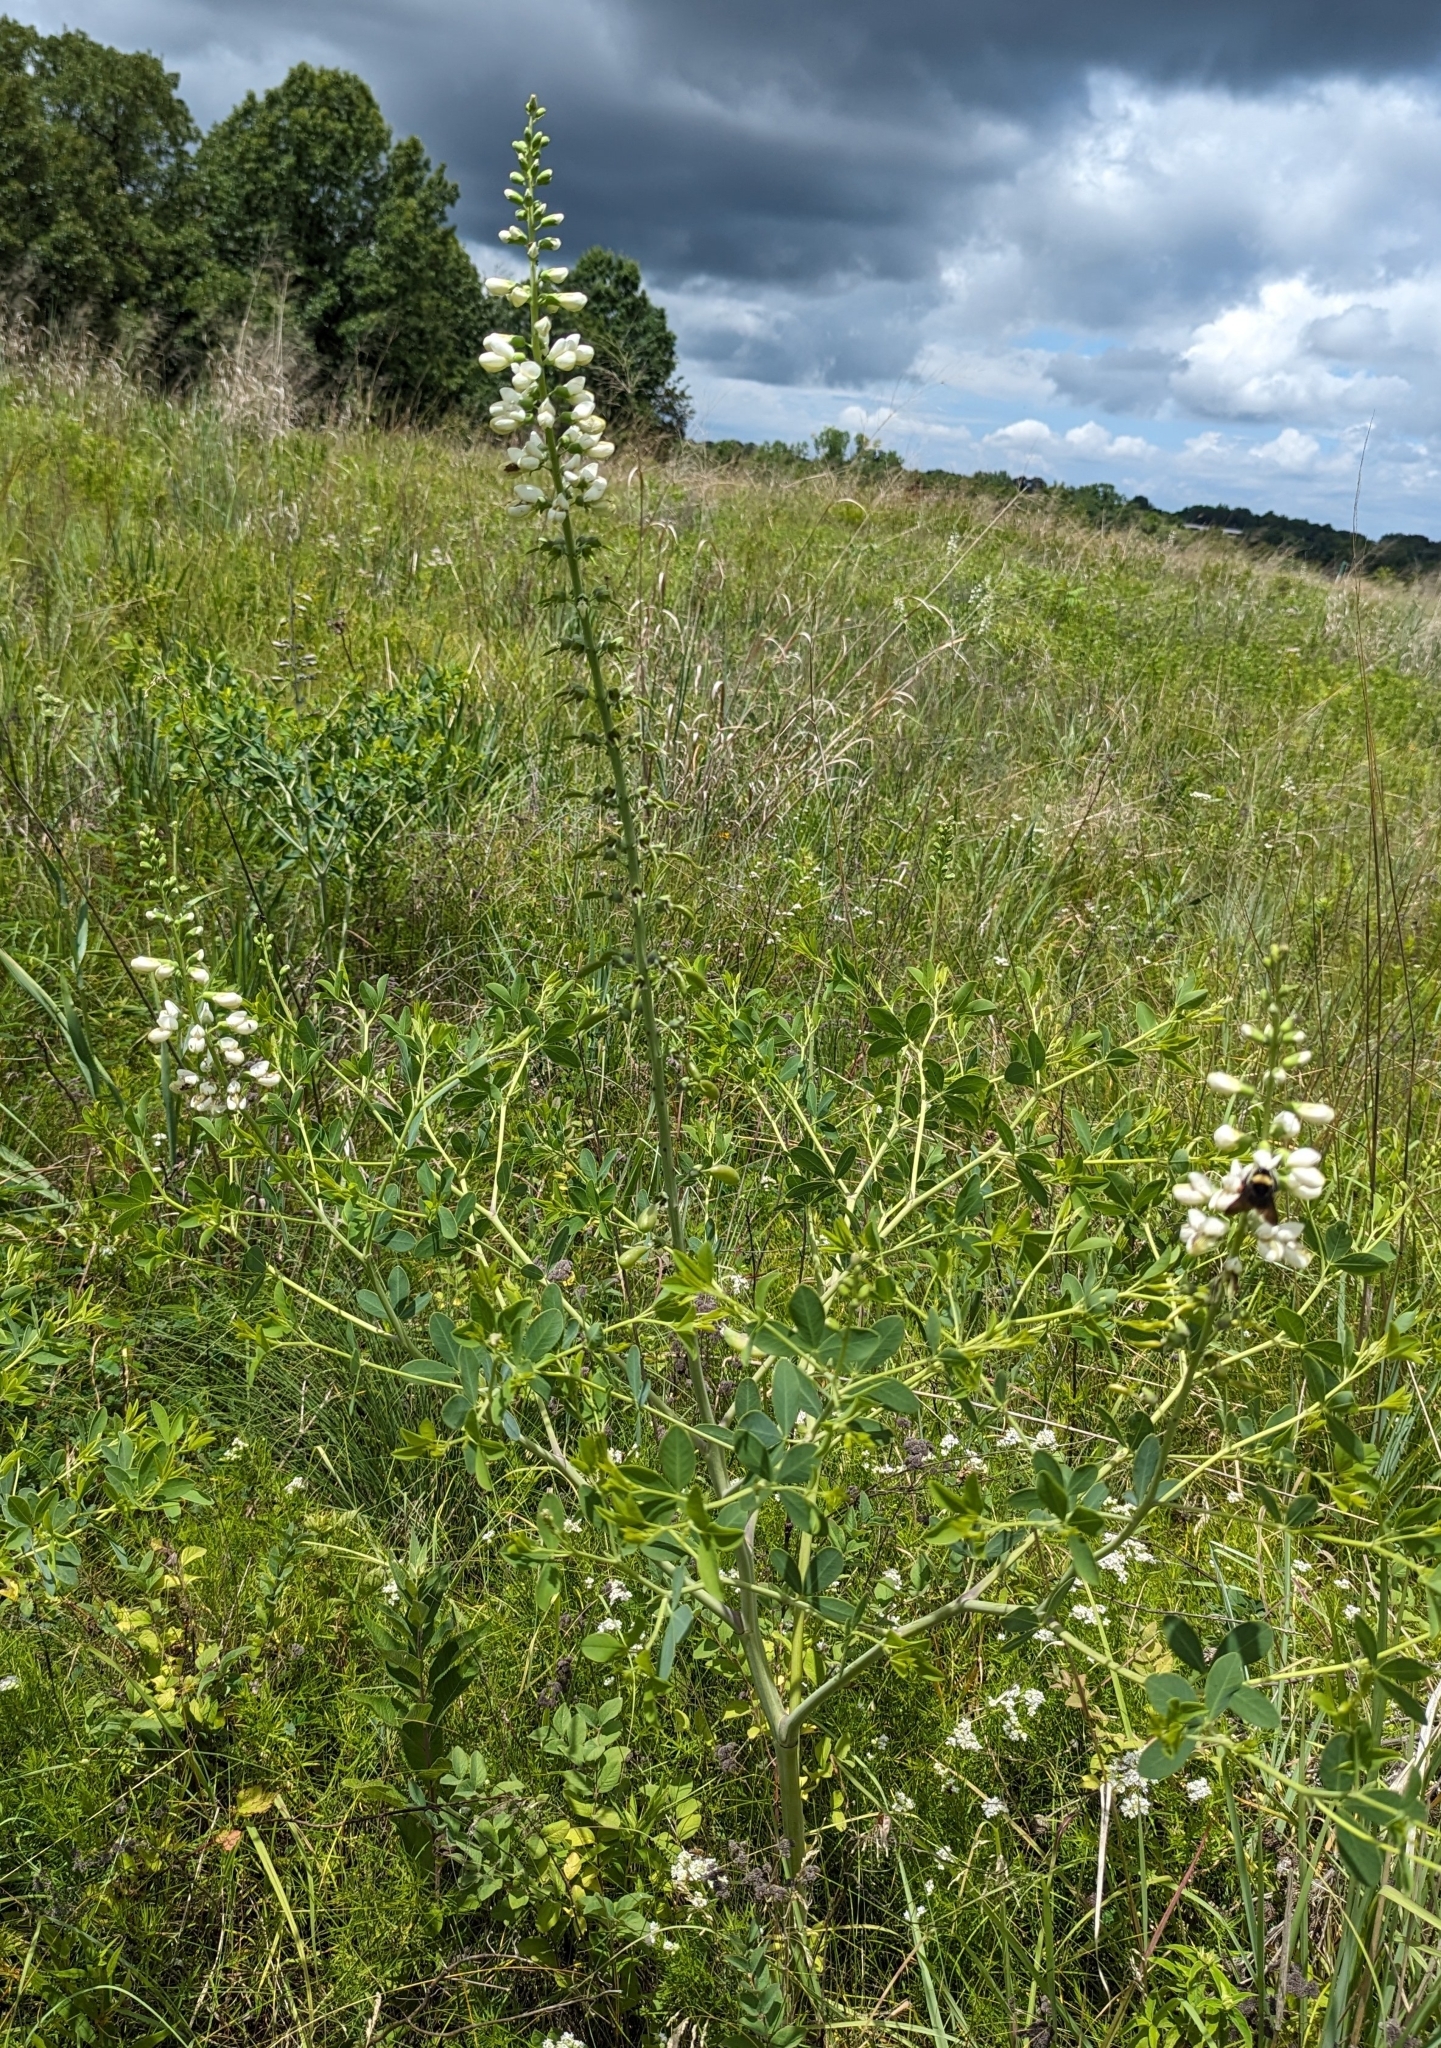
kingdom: Plantae
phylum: Tracheophyta
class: Magnoliopsida
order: Fabales
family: Fabaceae
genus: Baptisia
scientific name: Baptisia alba
